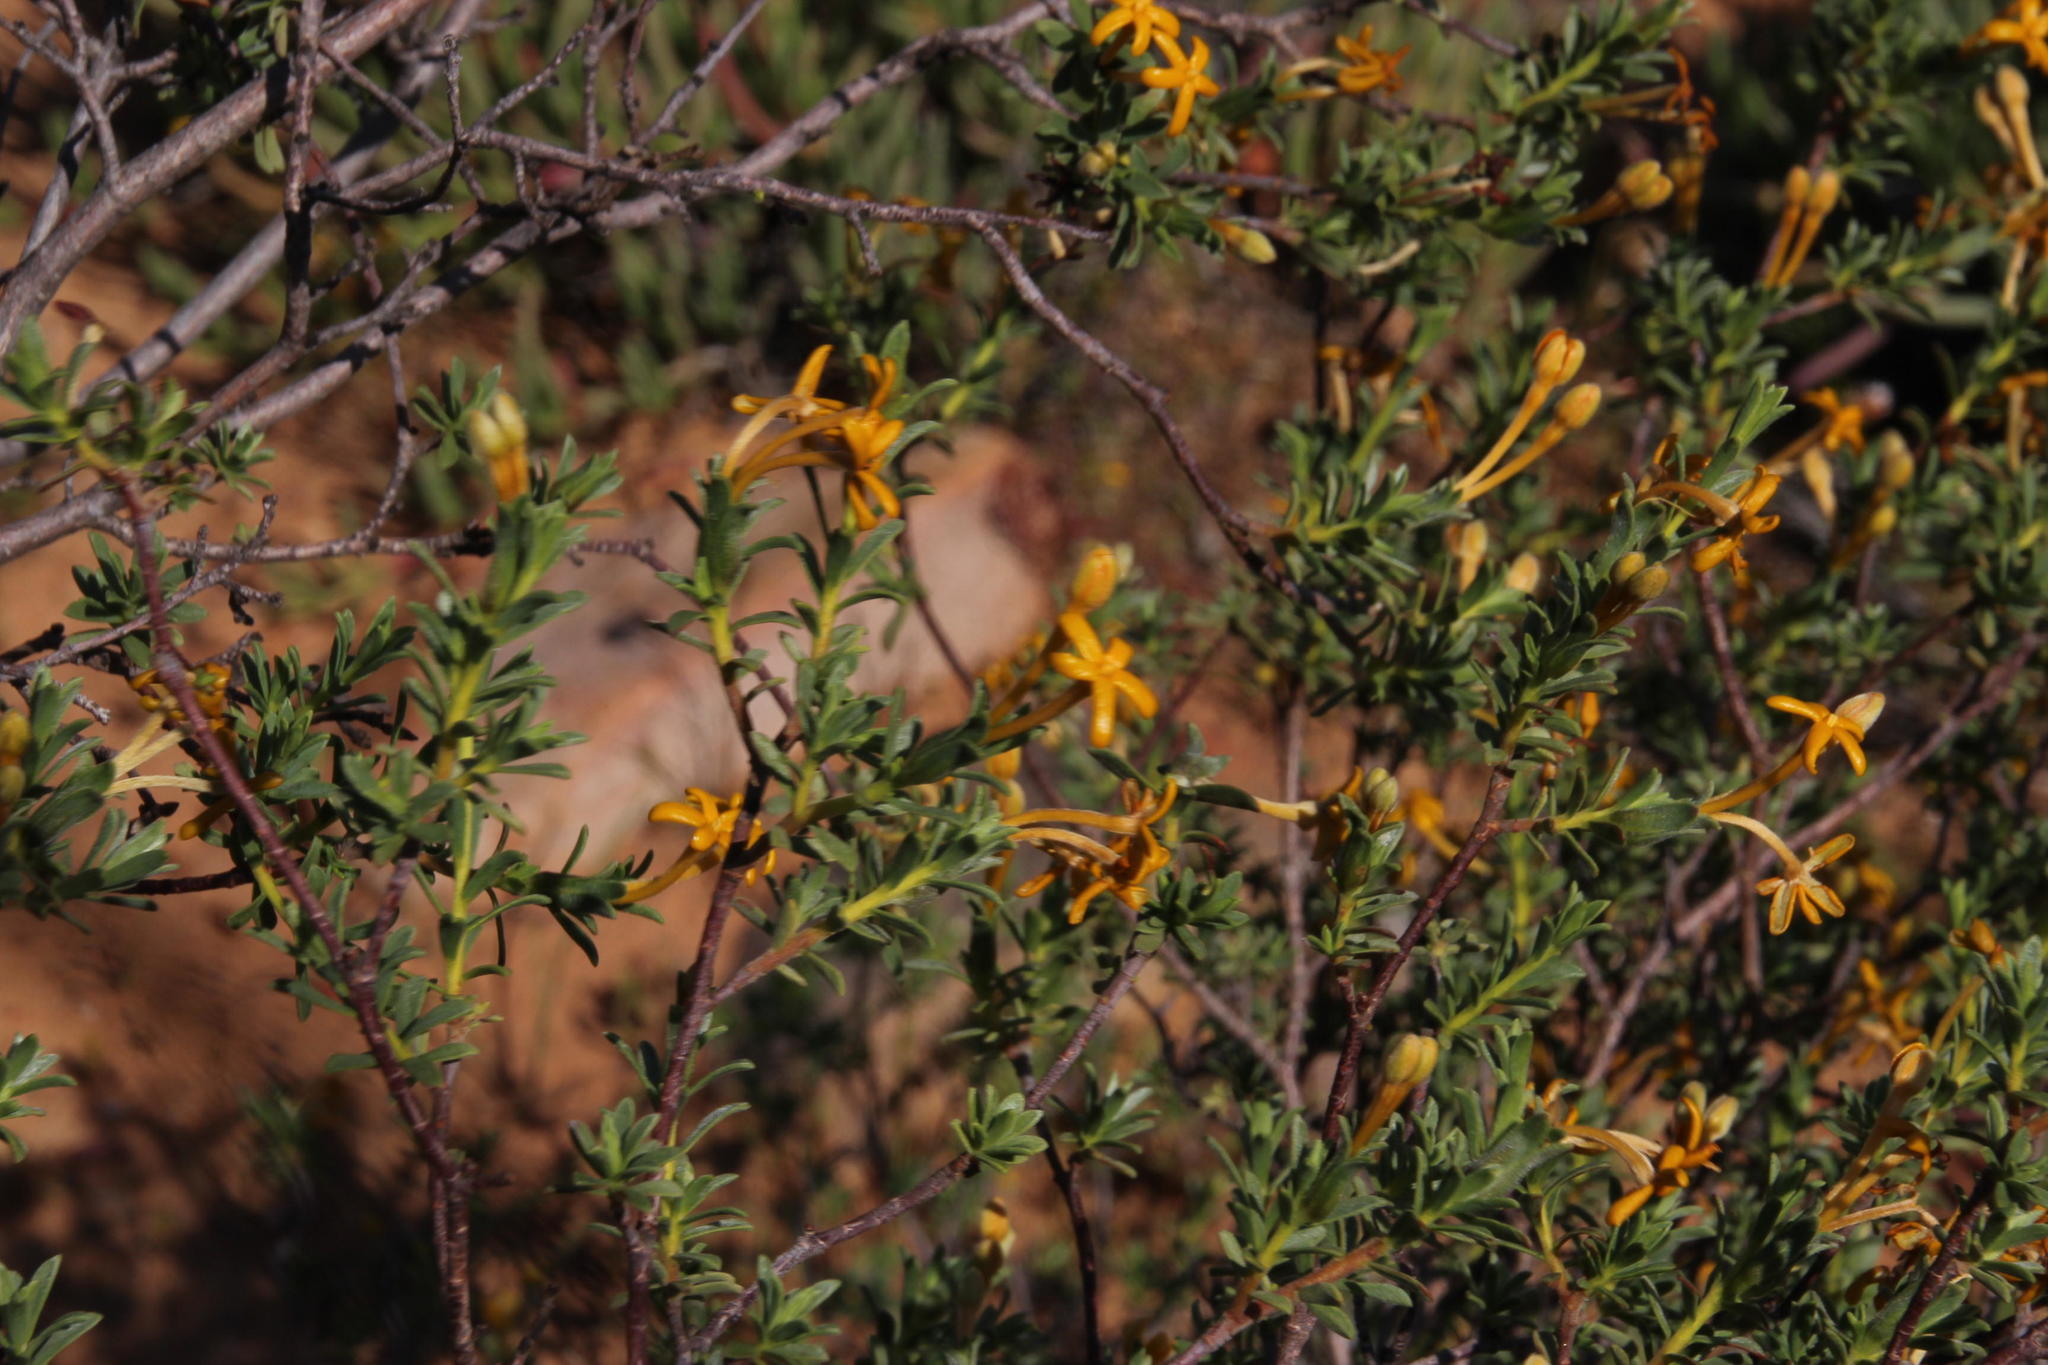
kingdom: Plantae
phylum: Tracheophyta
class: Magnoliopsida
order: Malvales
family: Thymelaeaceae
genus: Gnidia
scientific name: Gnidia deserticola
